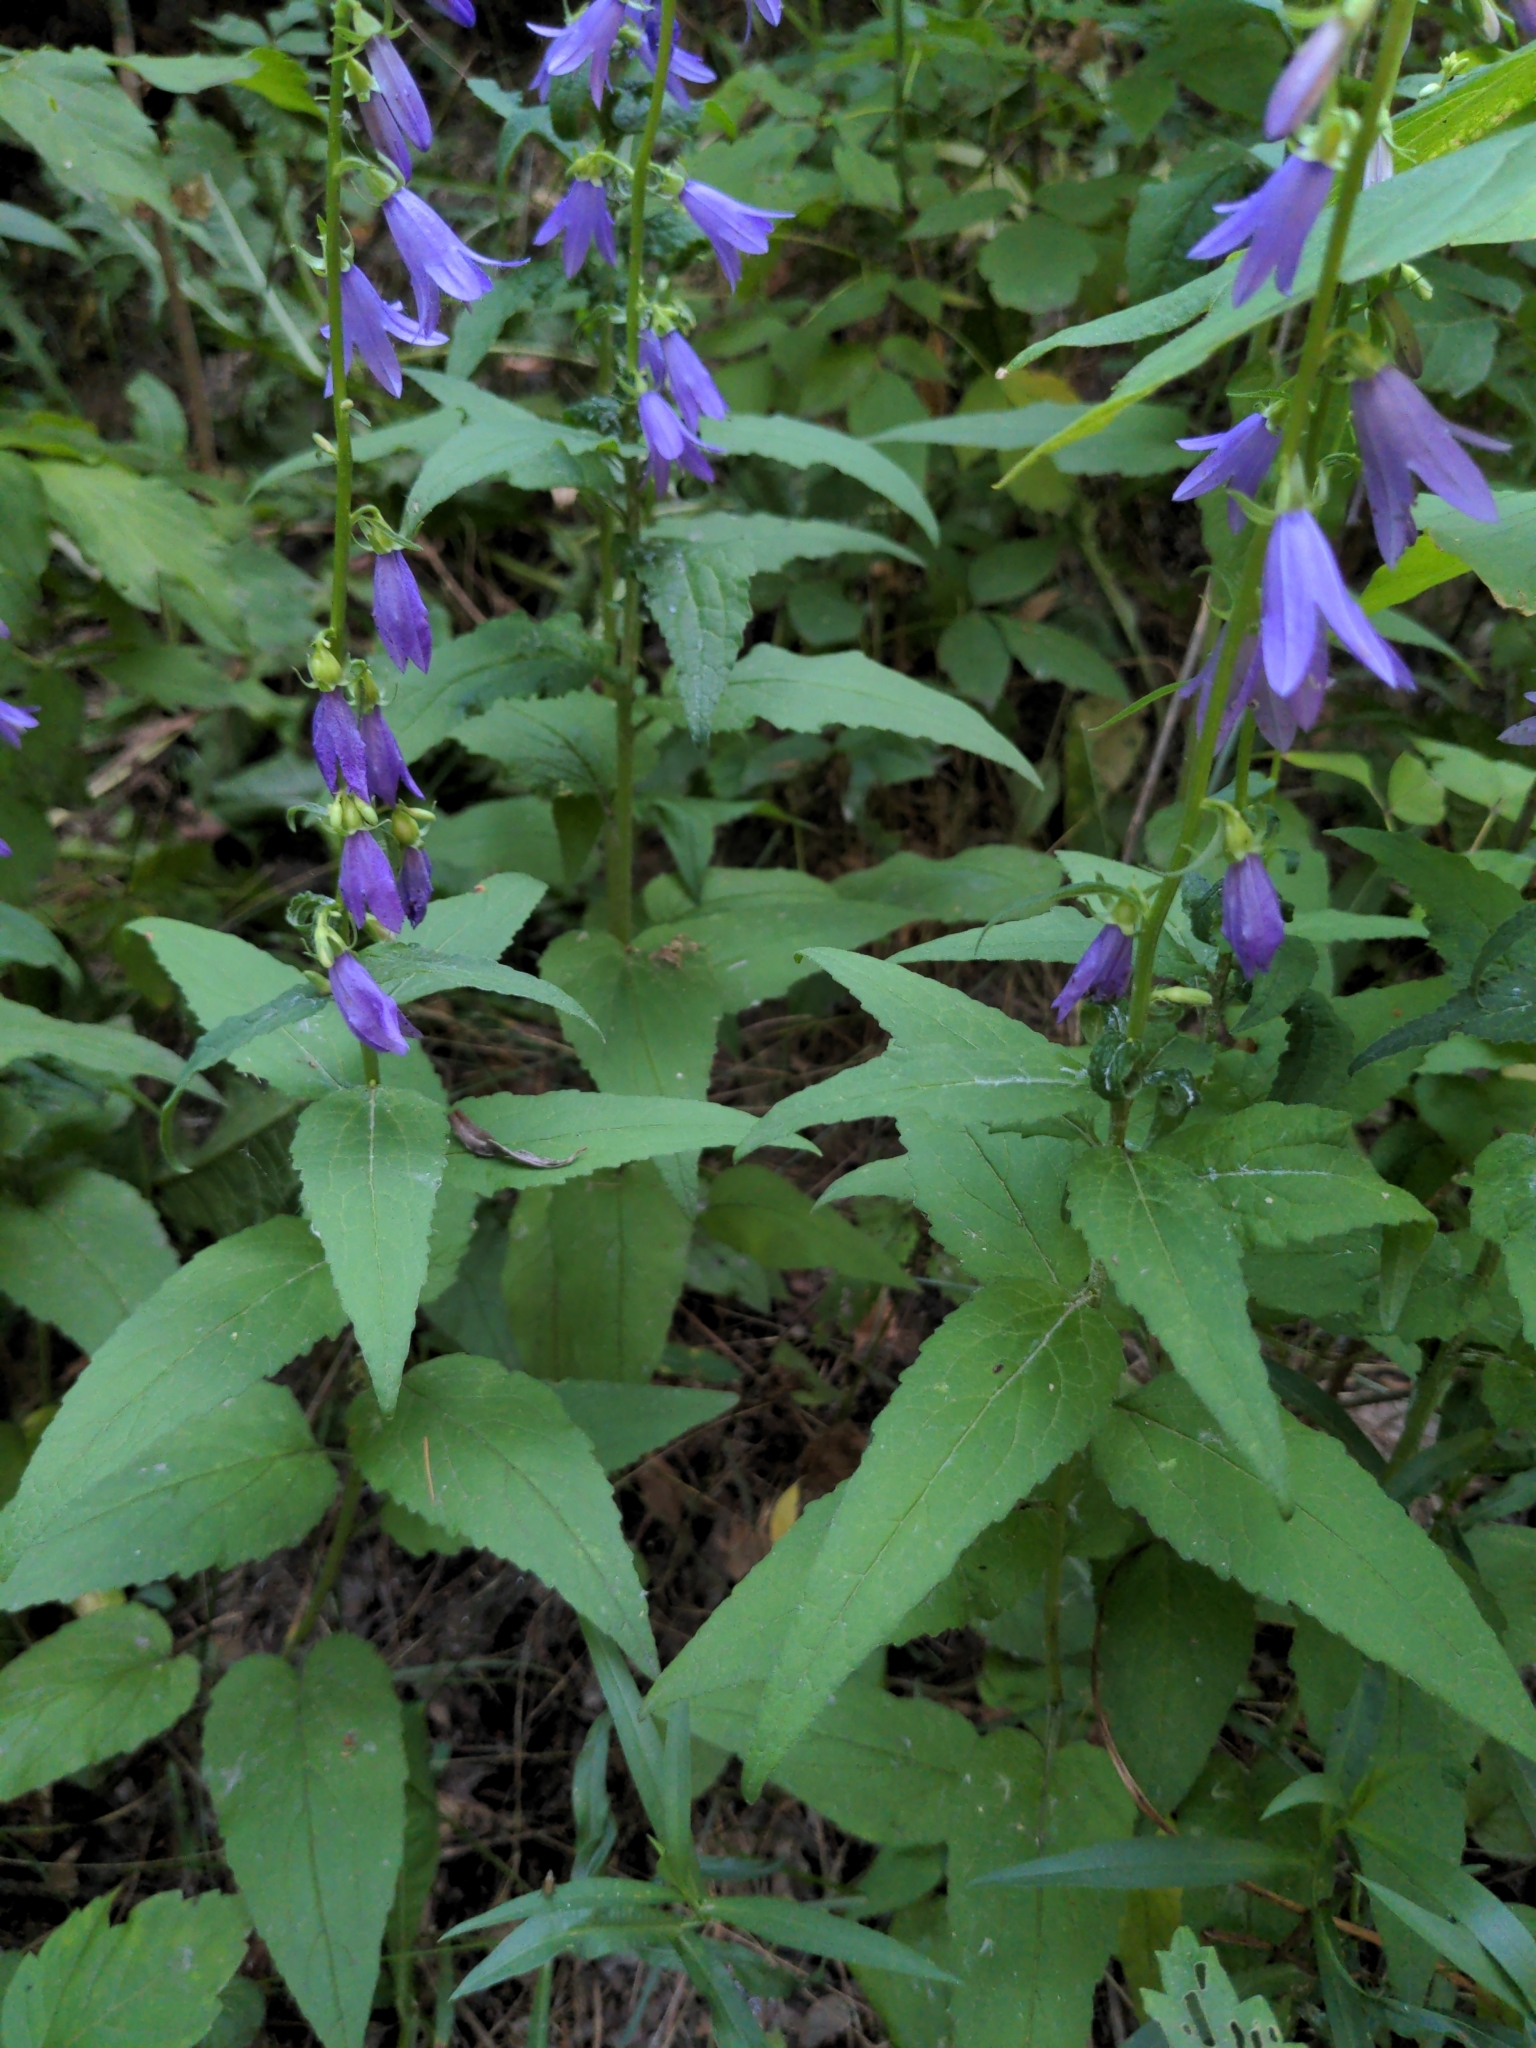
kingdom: Plantae
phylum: Tracheophyta
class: Magnoliopsida
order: Asterales
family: Campanulaceae
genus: Campanula
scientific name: Campanula rapunculoides
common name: Creeping bellflower
